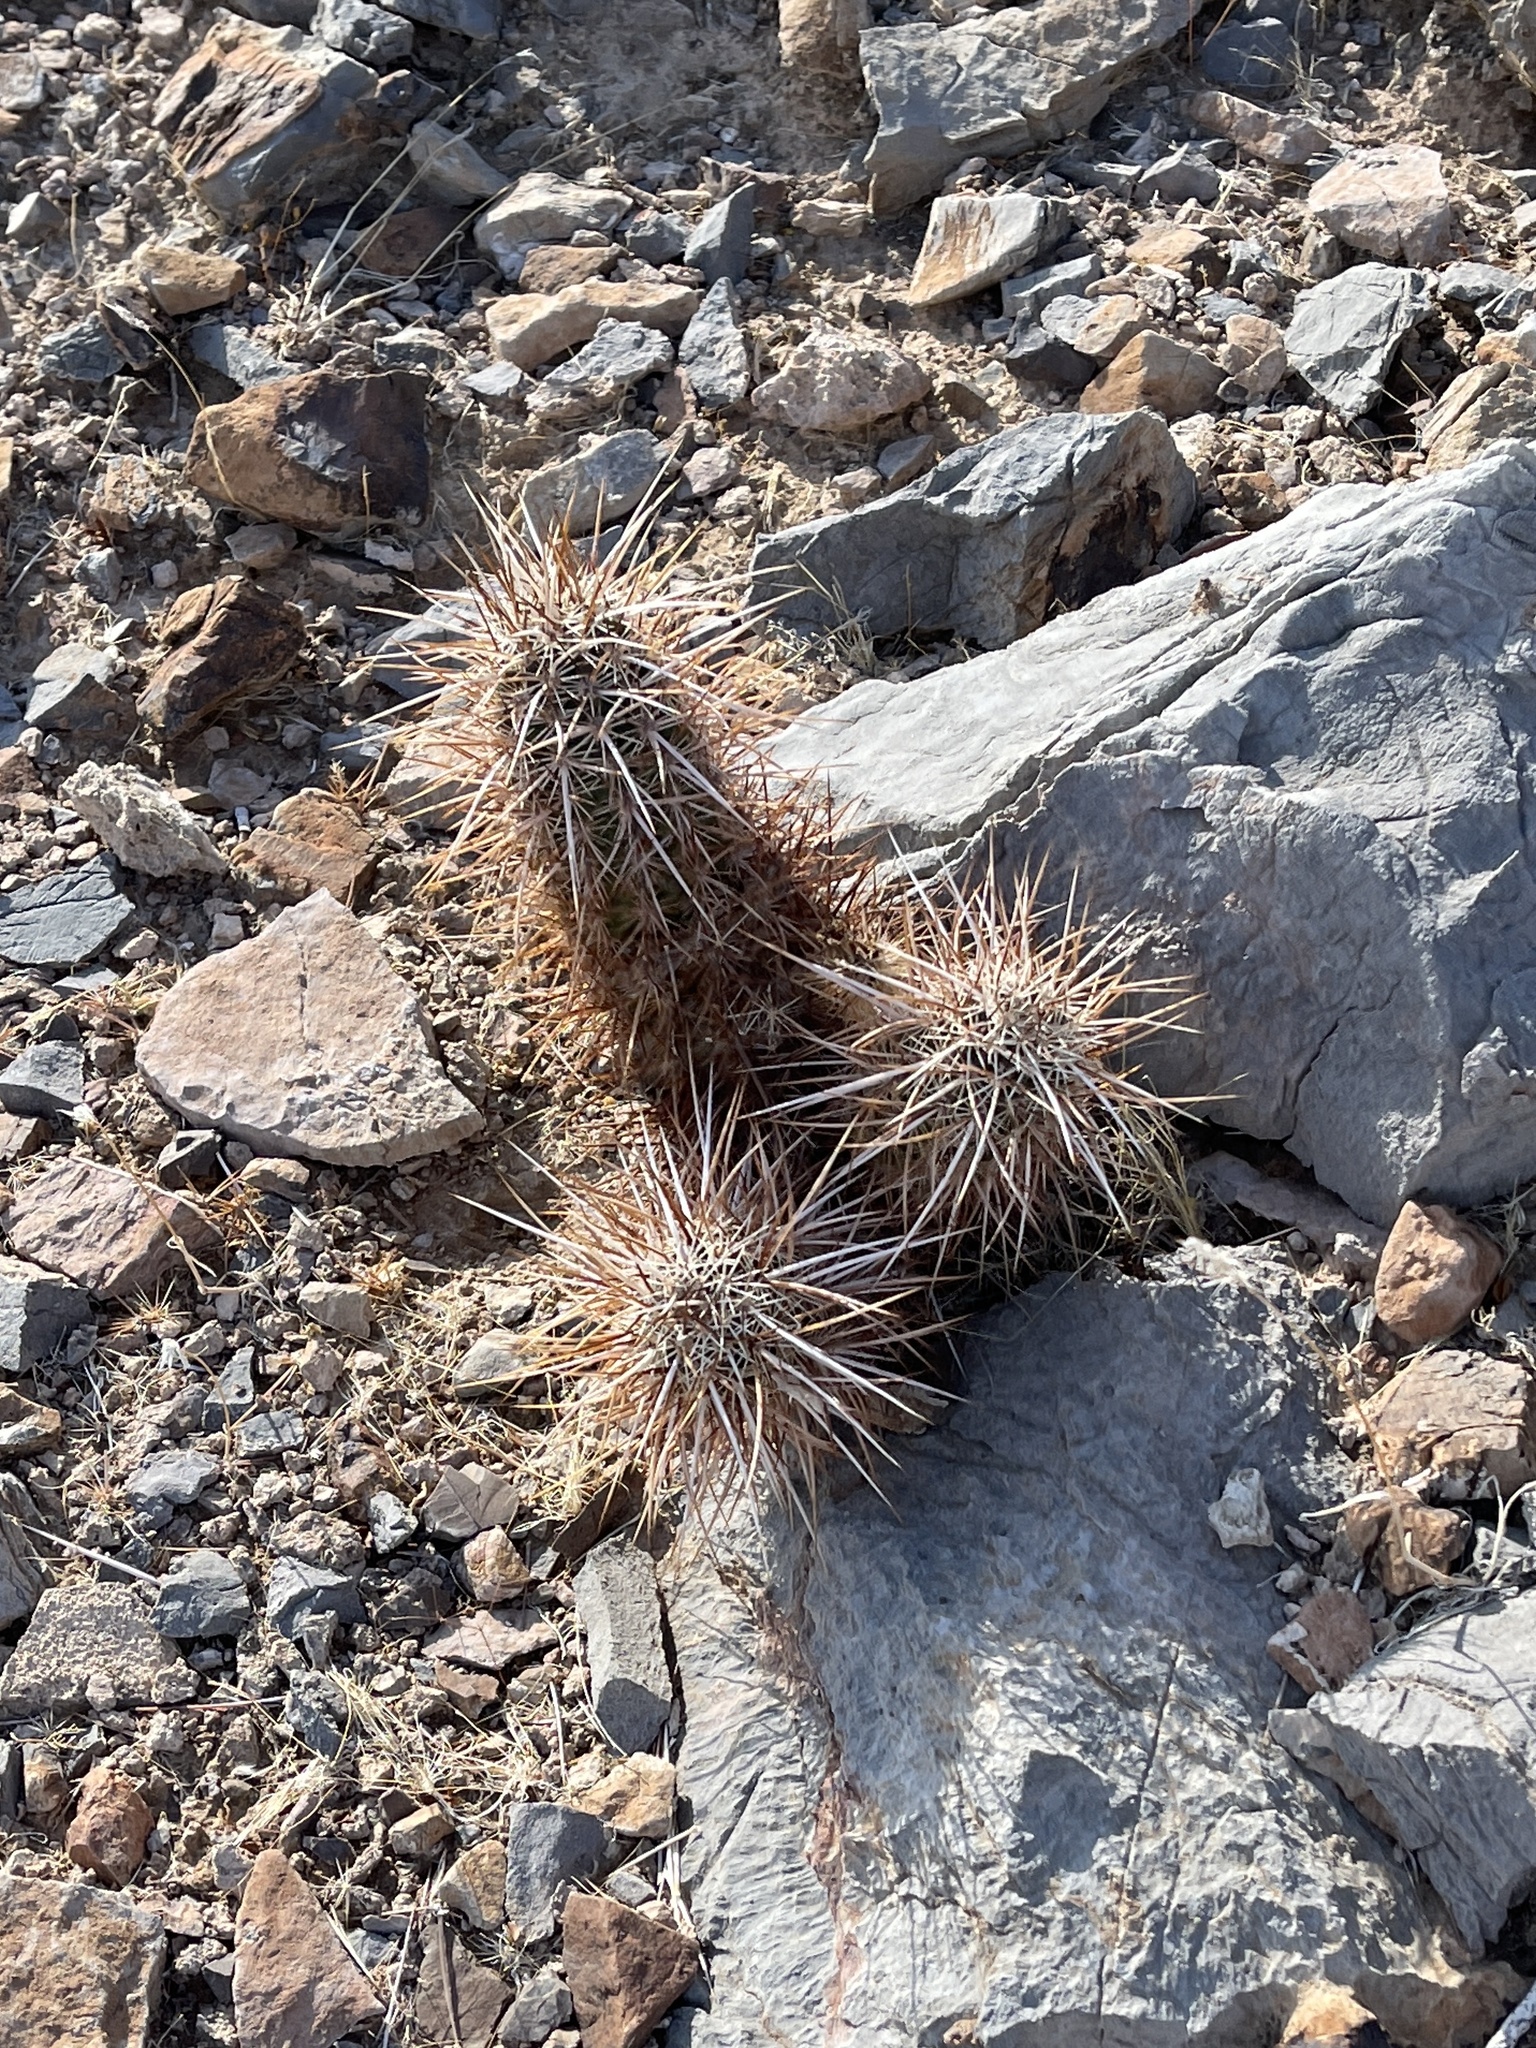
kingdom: Plantae
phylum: Tracheophyta
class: Magnoliopsida
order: Caryophyllales
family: Cactaceae
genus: Echinocereus
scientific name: Echinocereus engelmannii
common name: Engelmann's hedgehog cactus
